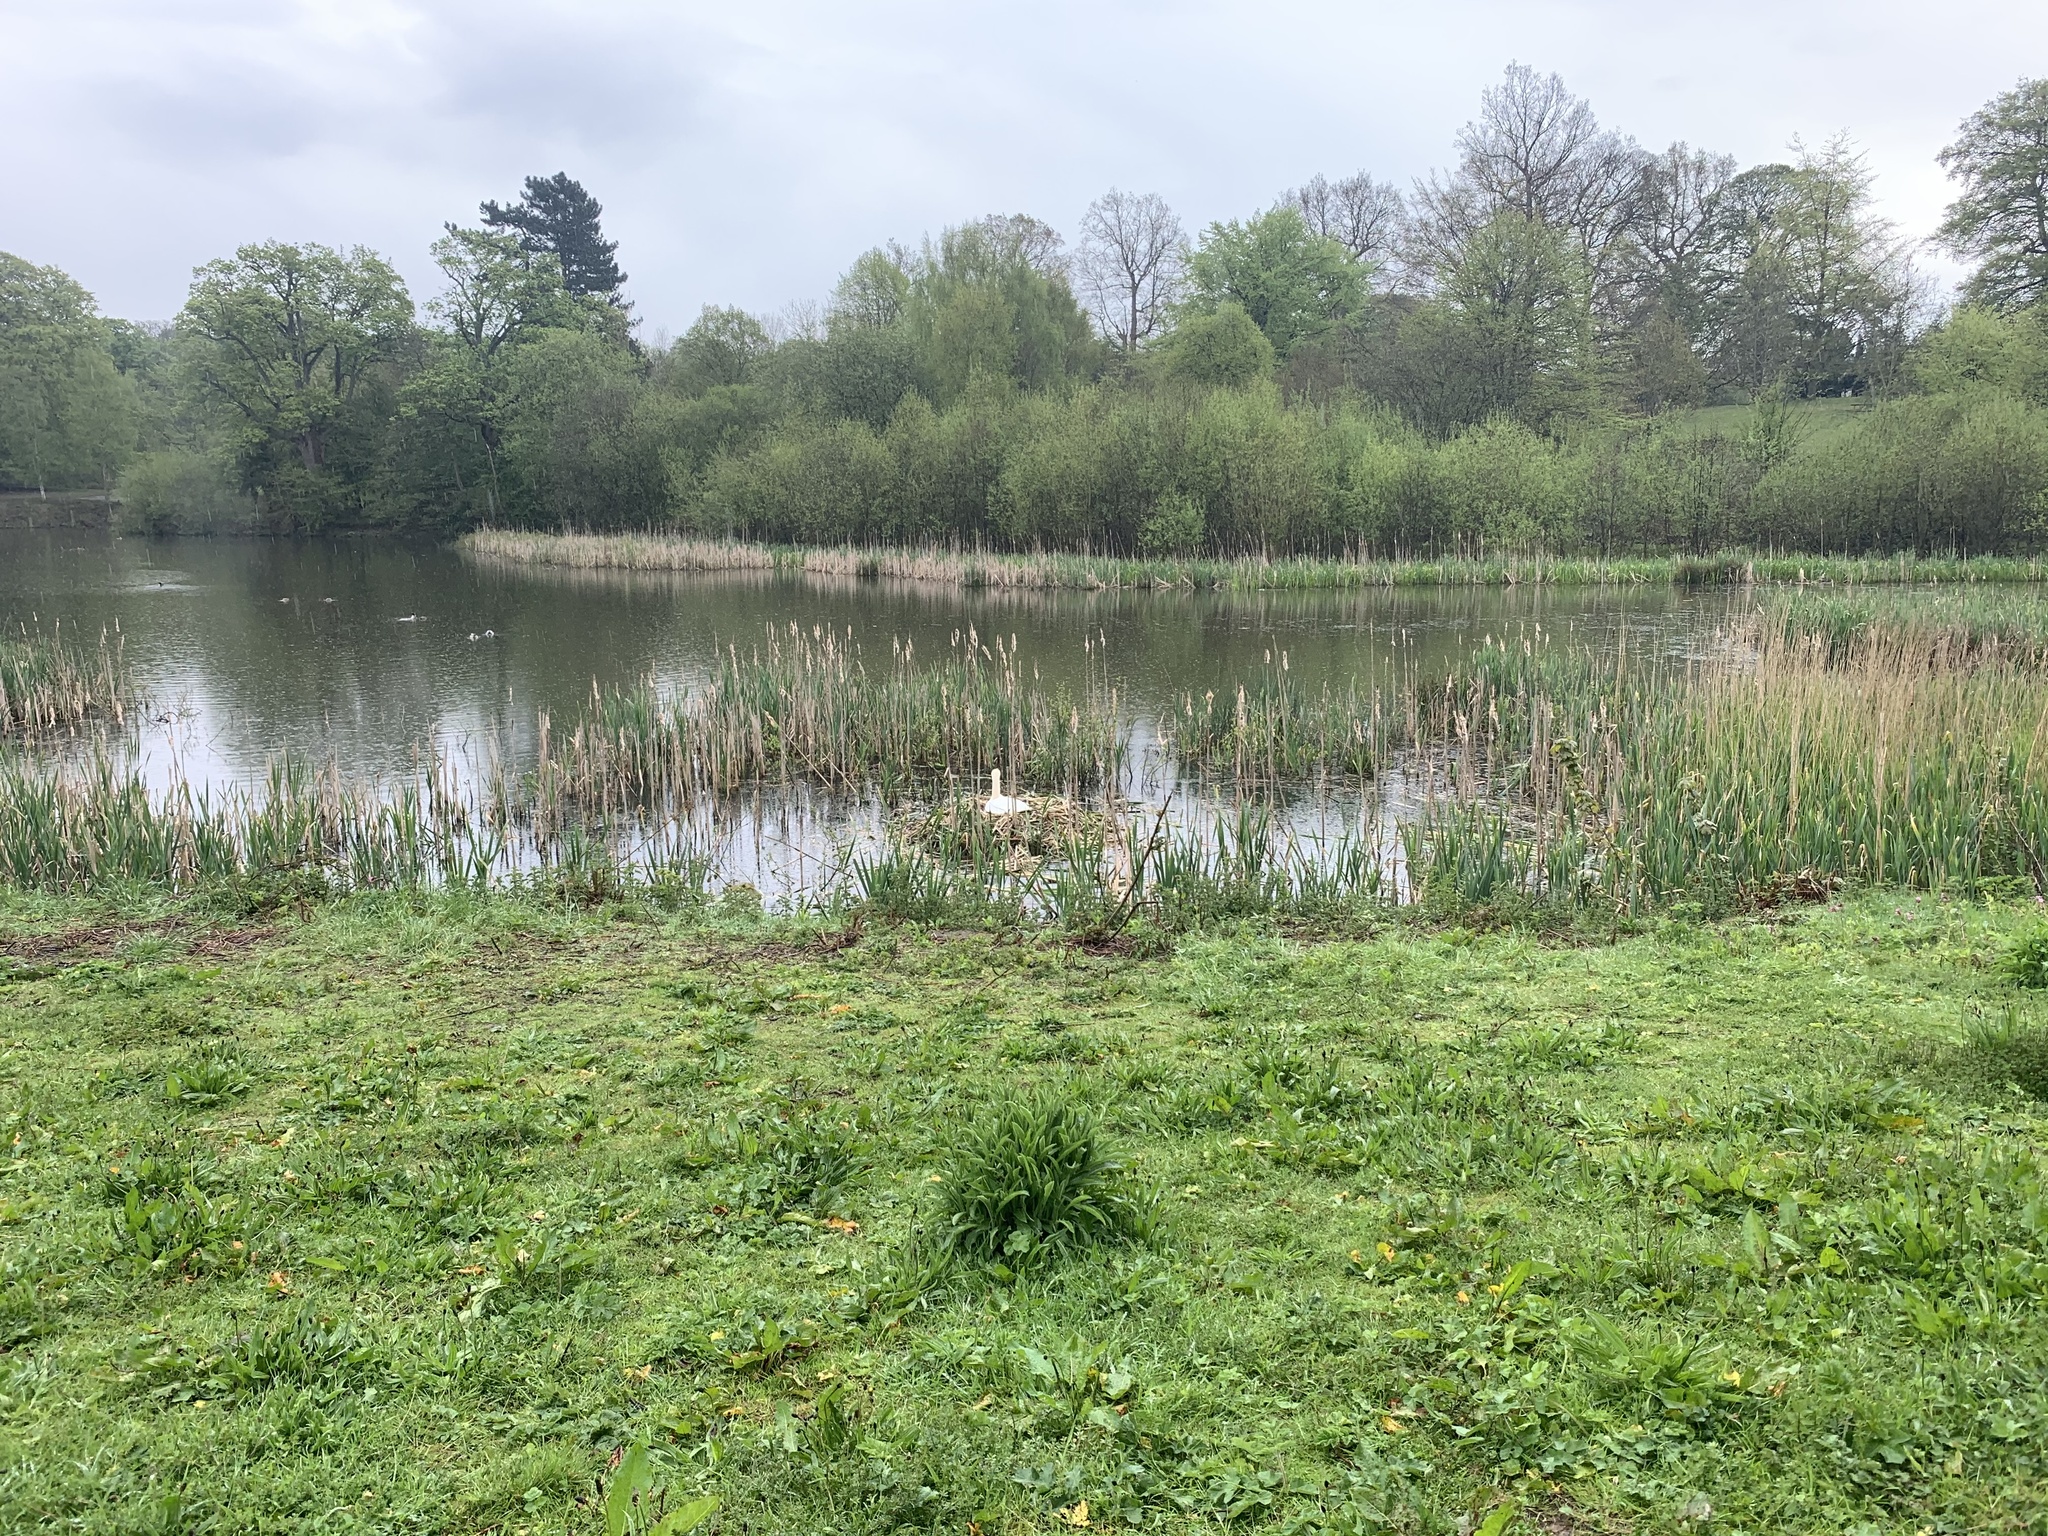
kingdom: Animalia
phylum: Chordata
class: Aves
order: Anseriformes
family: Anatidae
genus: Cygnus
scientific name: Cygnus olor
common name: Mute swan
